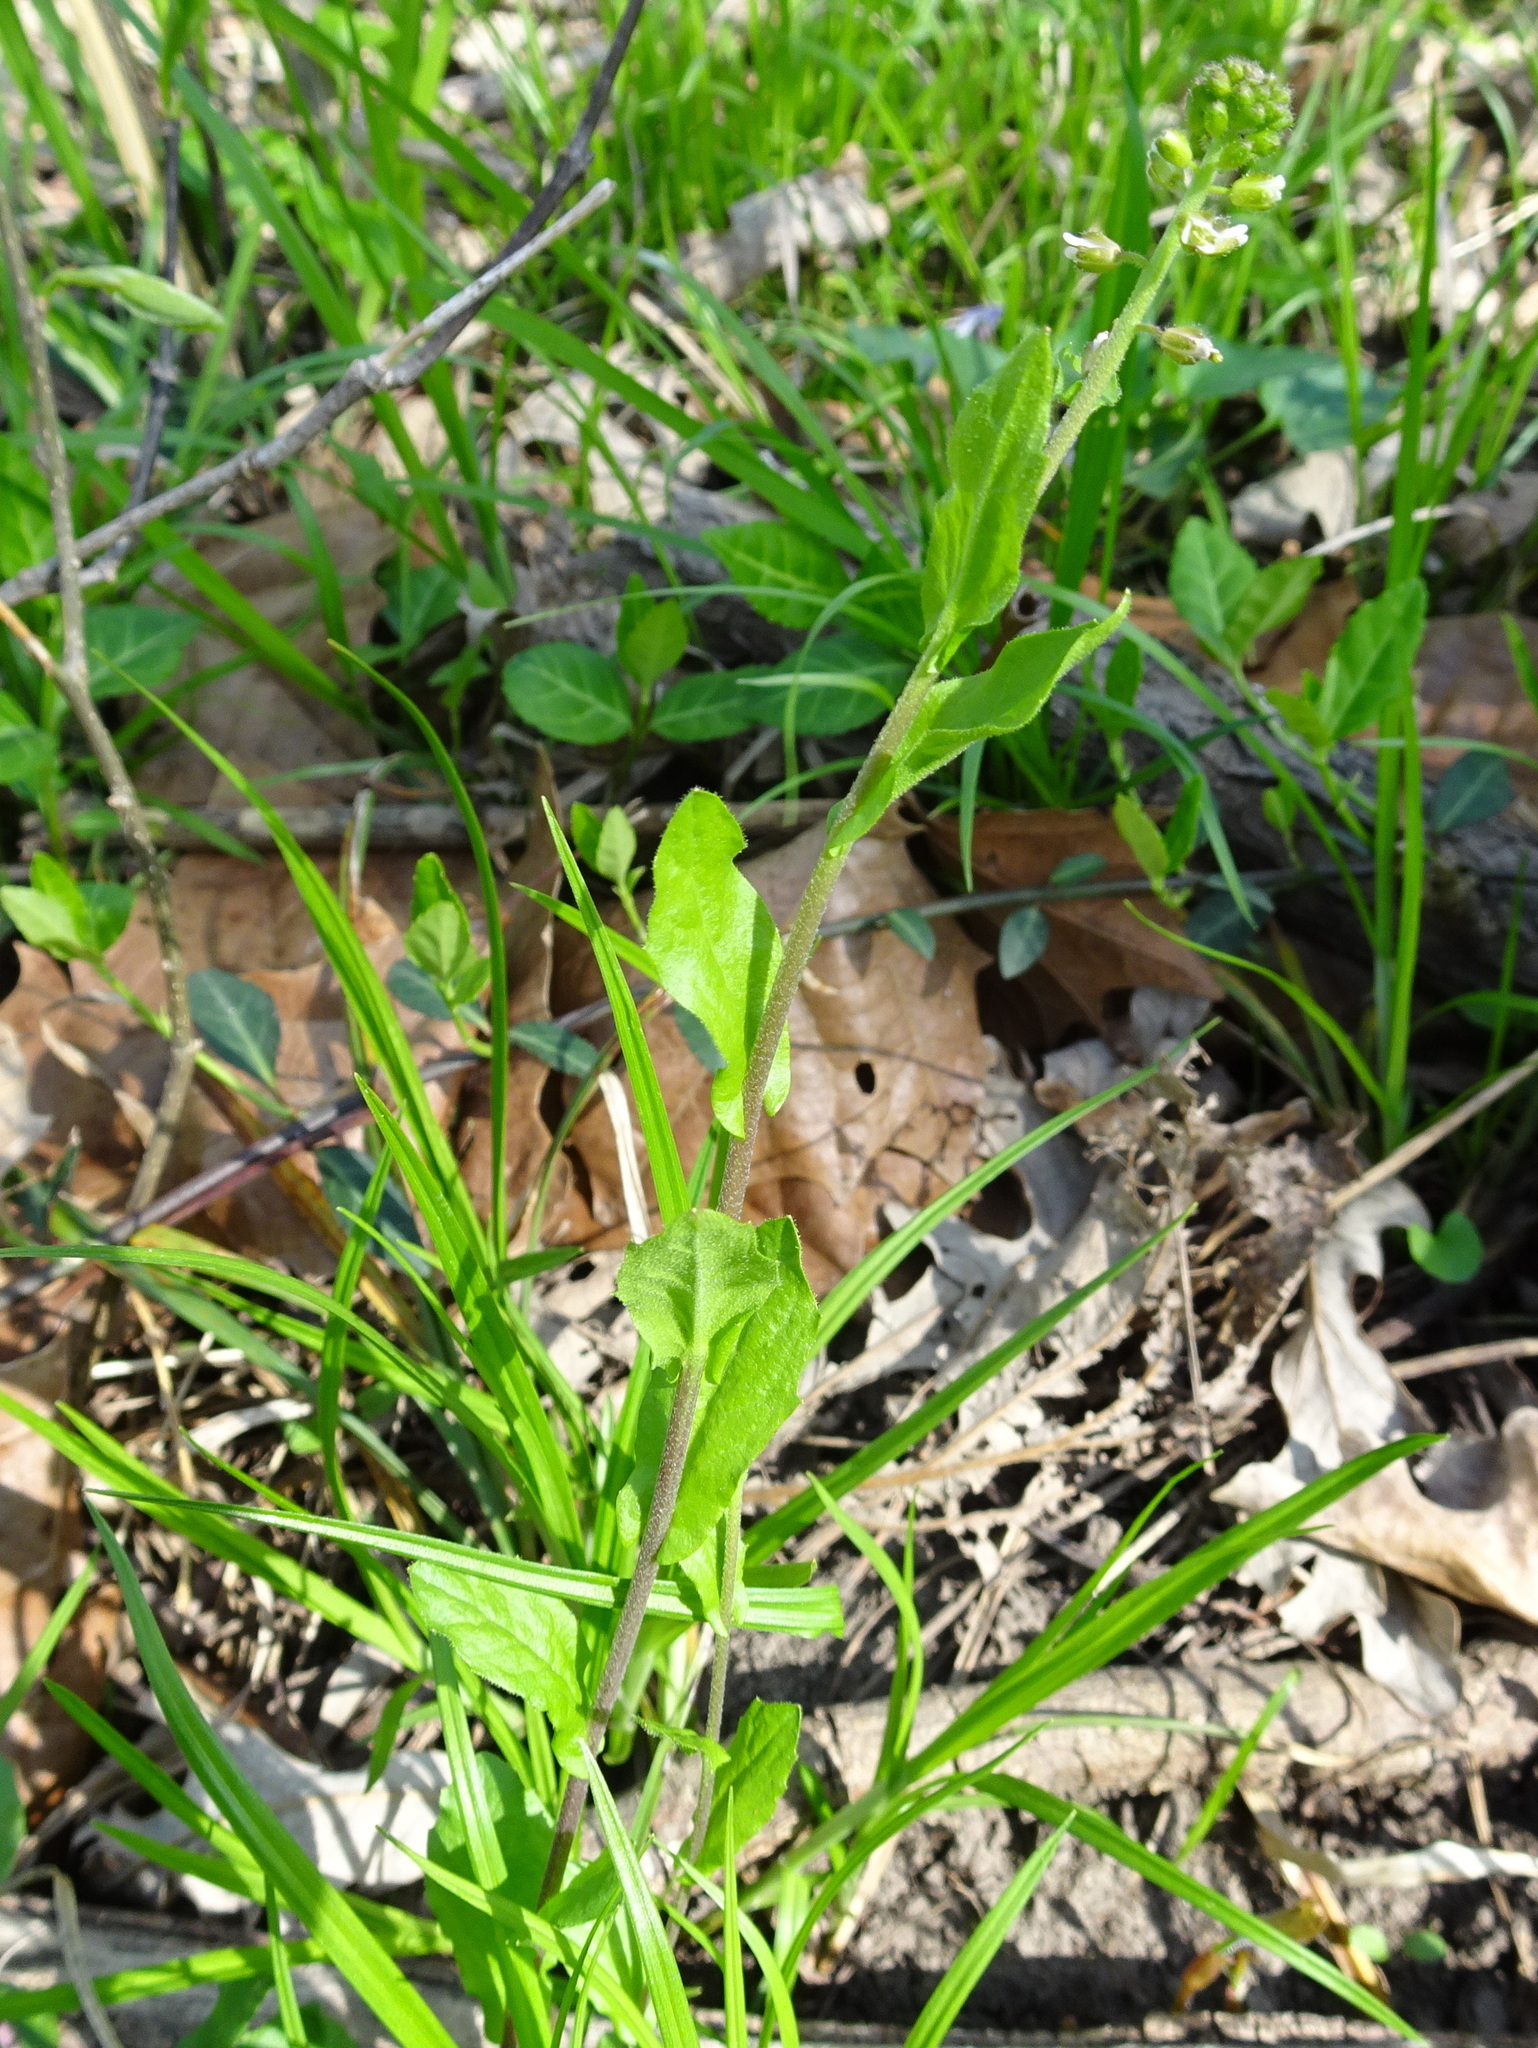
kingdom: Plantae
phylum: Tracheophyta
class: Magnoliopsida
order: Brassicales
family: Brassicaceae
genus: Borodinia
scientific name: Borodinia dentata
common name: Short's rockcress
